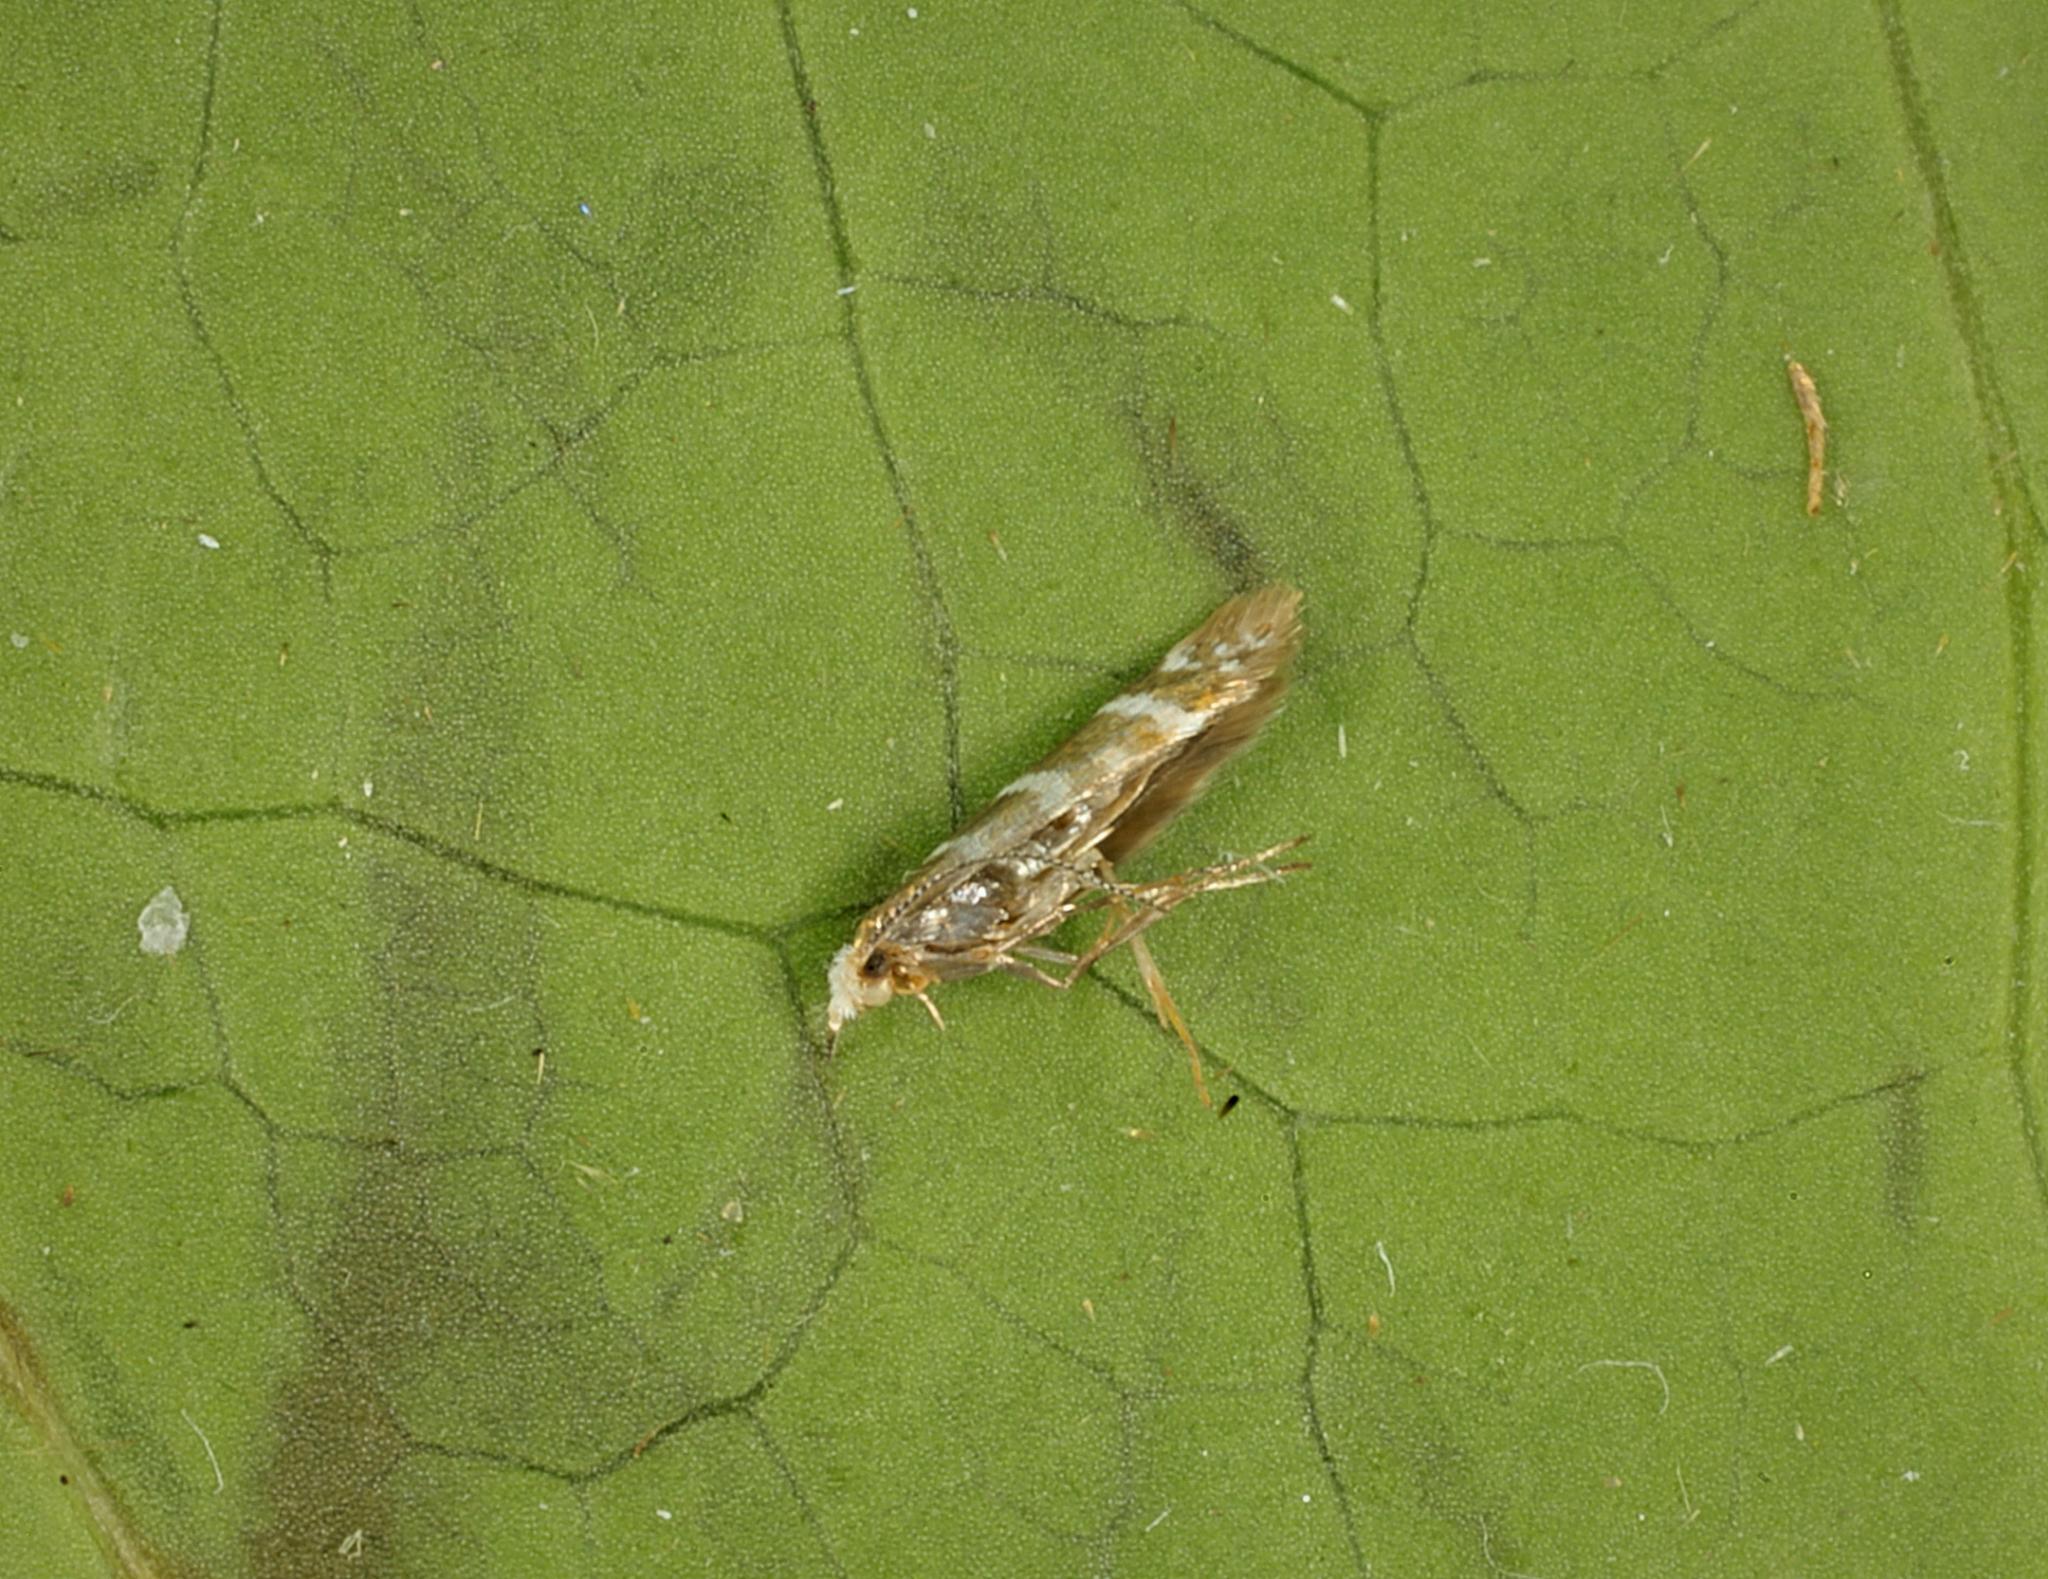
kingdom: Animalia
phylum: Arthropoda
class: Insecta
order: Lepidoptera
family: Argyresthiidae
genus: Argyresthia
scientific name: Argyresthia trifasciata
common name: Triple-barred argent
